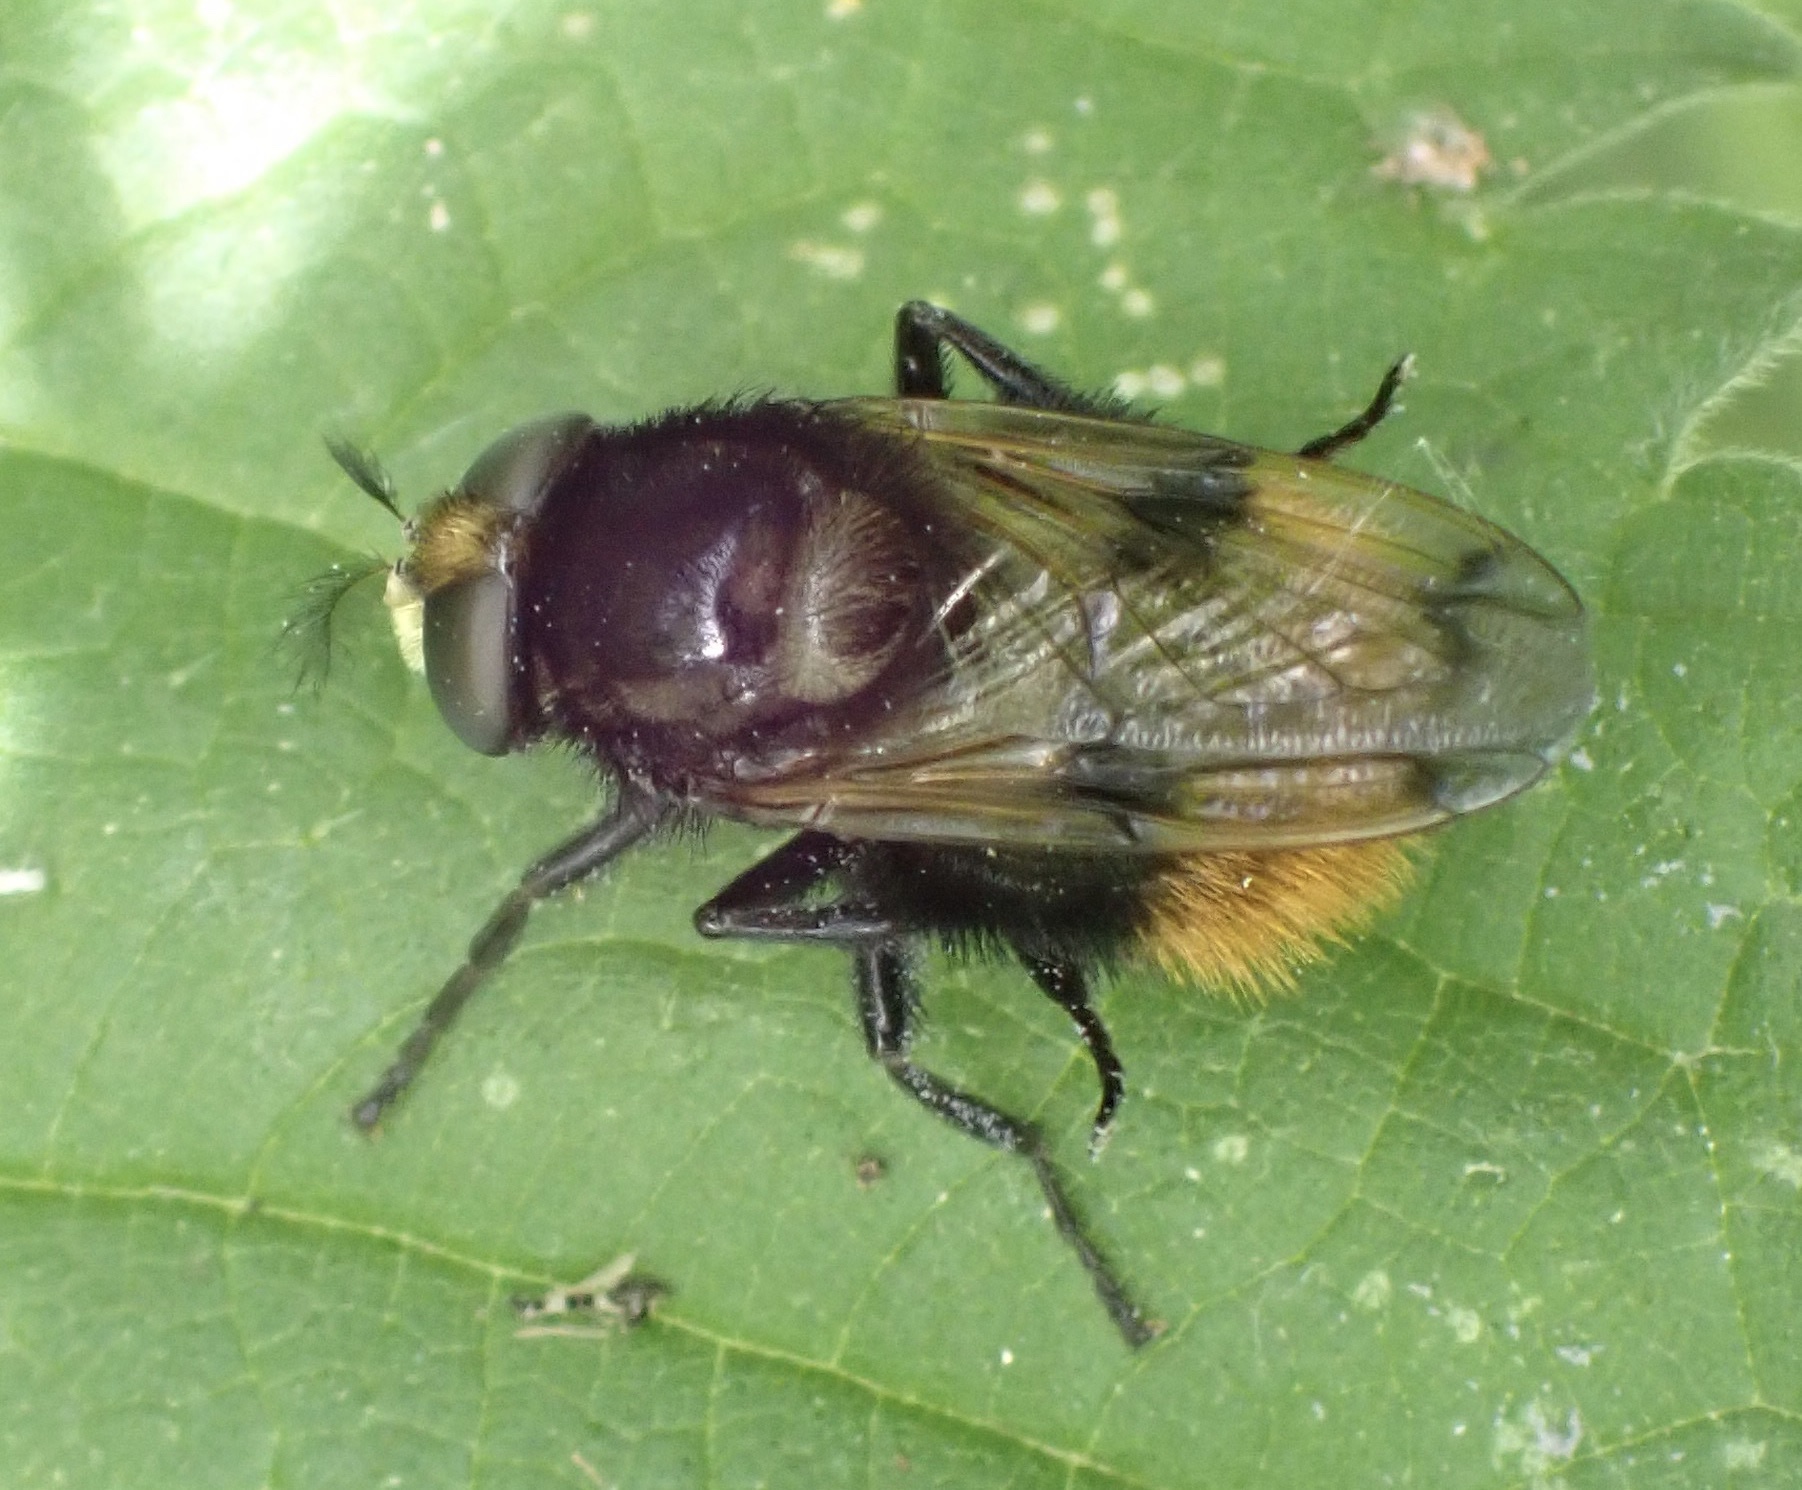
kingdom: Animalia
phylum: Arthropoda
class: Insecta
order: Diptera
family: Syrphidae
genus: Volucella
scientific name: Volucella bombylans
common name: Bumble bee hover fly
